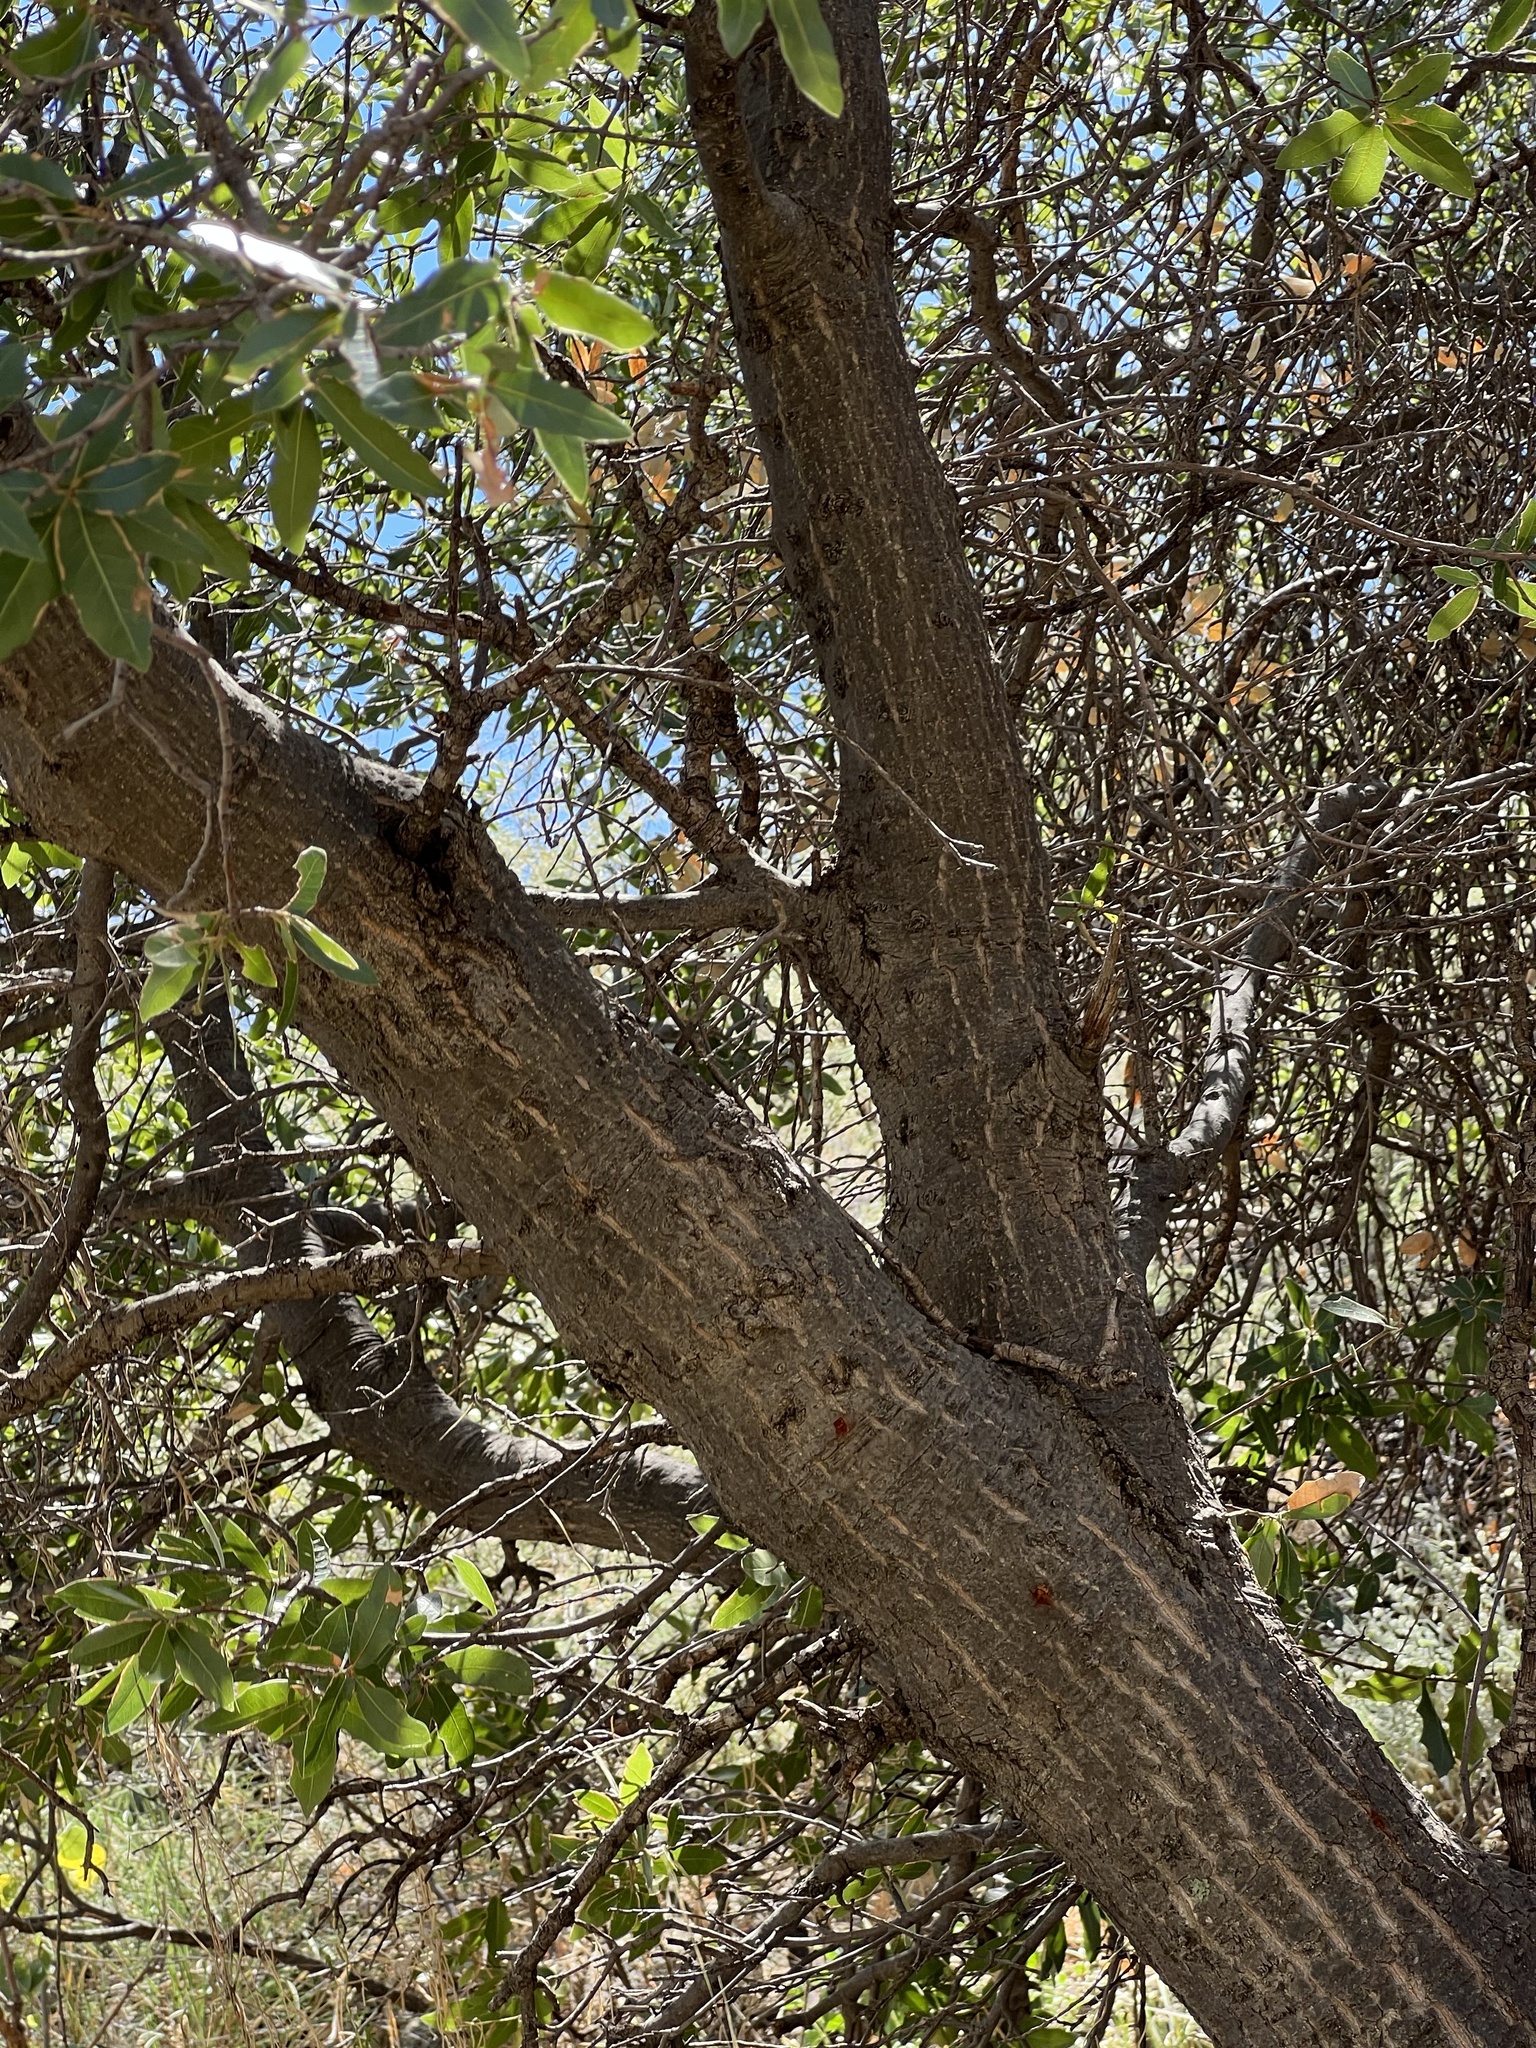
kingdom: Plantae
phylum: Tracheophyta
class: Magnoliopsida
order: Fagales
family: Fagaceae
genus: Quercus
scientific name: Quercus emoryi
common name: Emory oak
